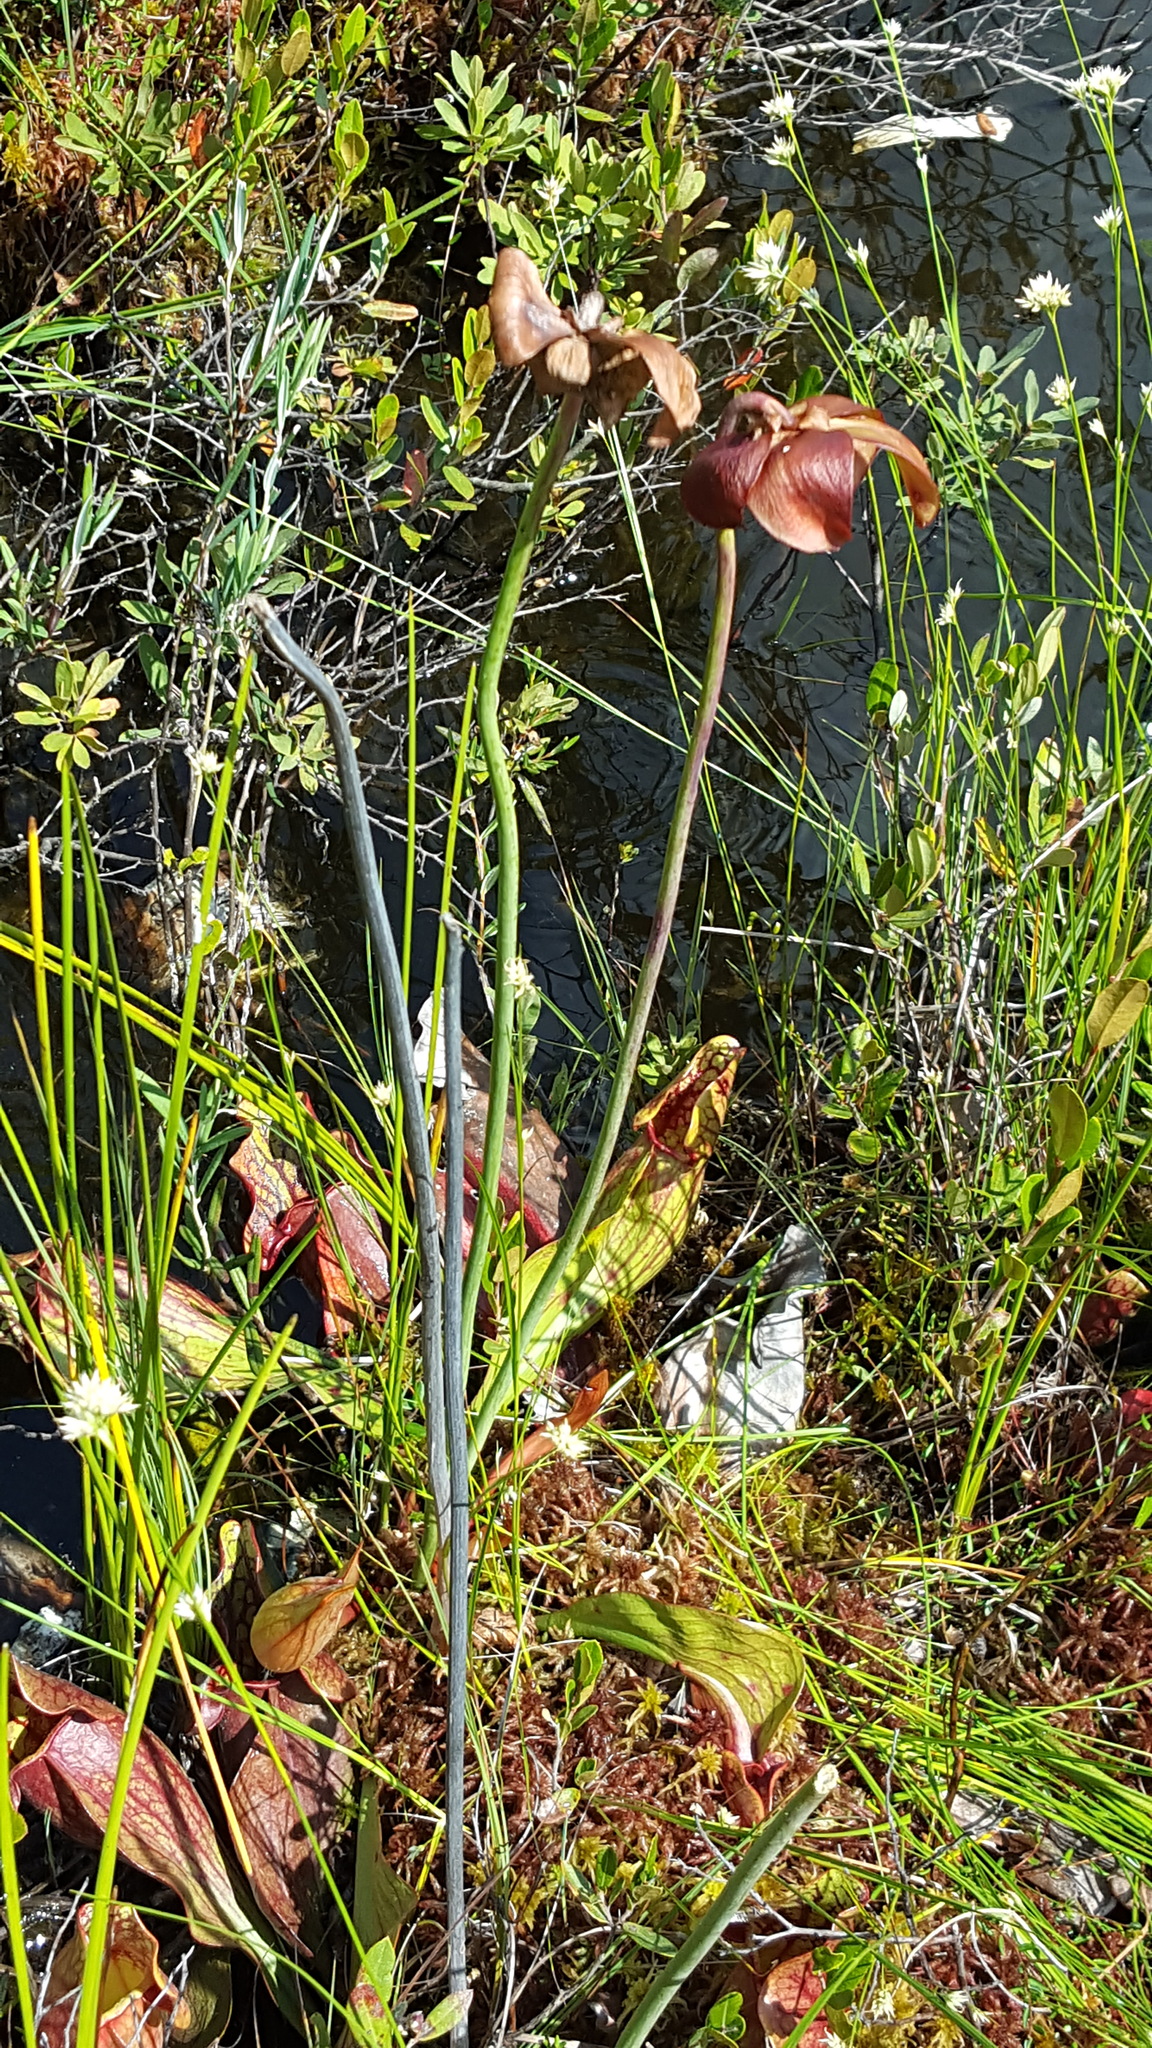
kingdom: Plantae
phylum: Tracheophyta
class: Magnoliopsida
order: Ericales
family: Sarraceniaceae
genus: Sarracenia
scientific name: Sarracenia purpurea
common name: Pitcherplant
